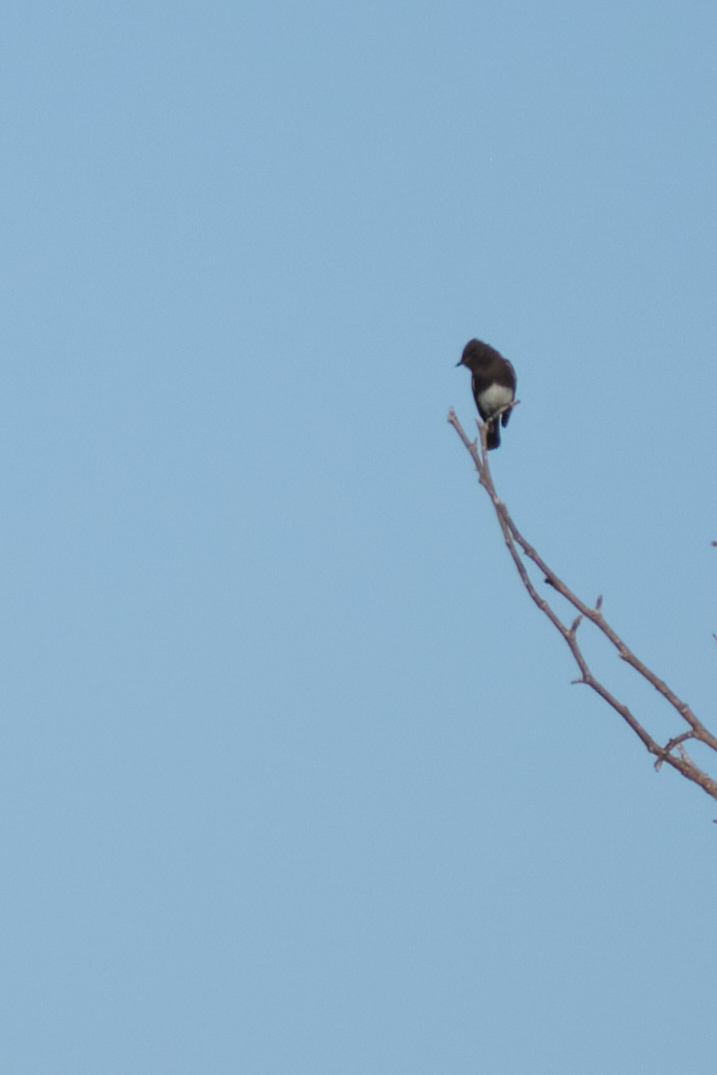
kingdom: Animalia
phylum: Chordata
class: Aves
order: Passeriformes
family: Tyrannidae
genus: Sayornis
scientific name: Sayornis nigricans
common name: Black phoebe
